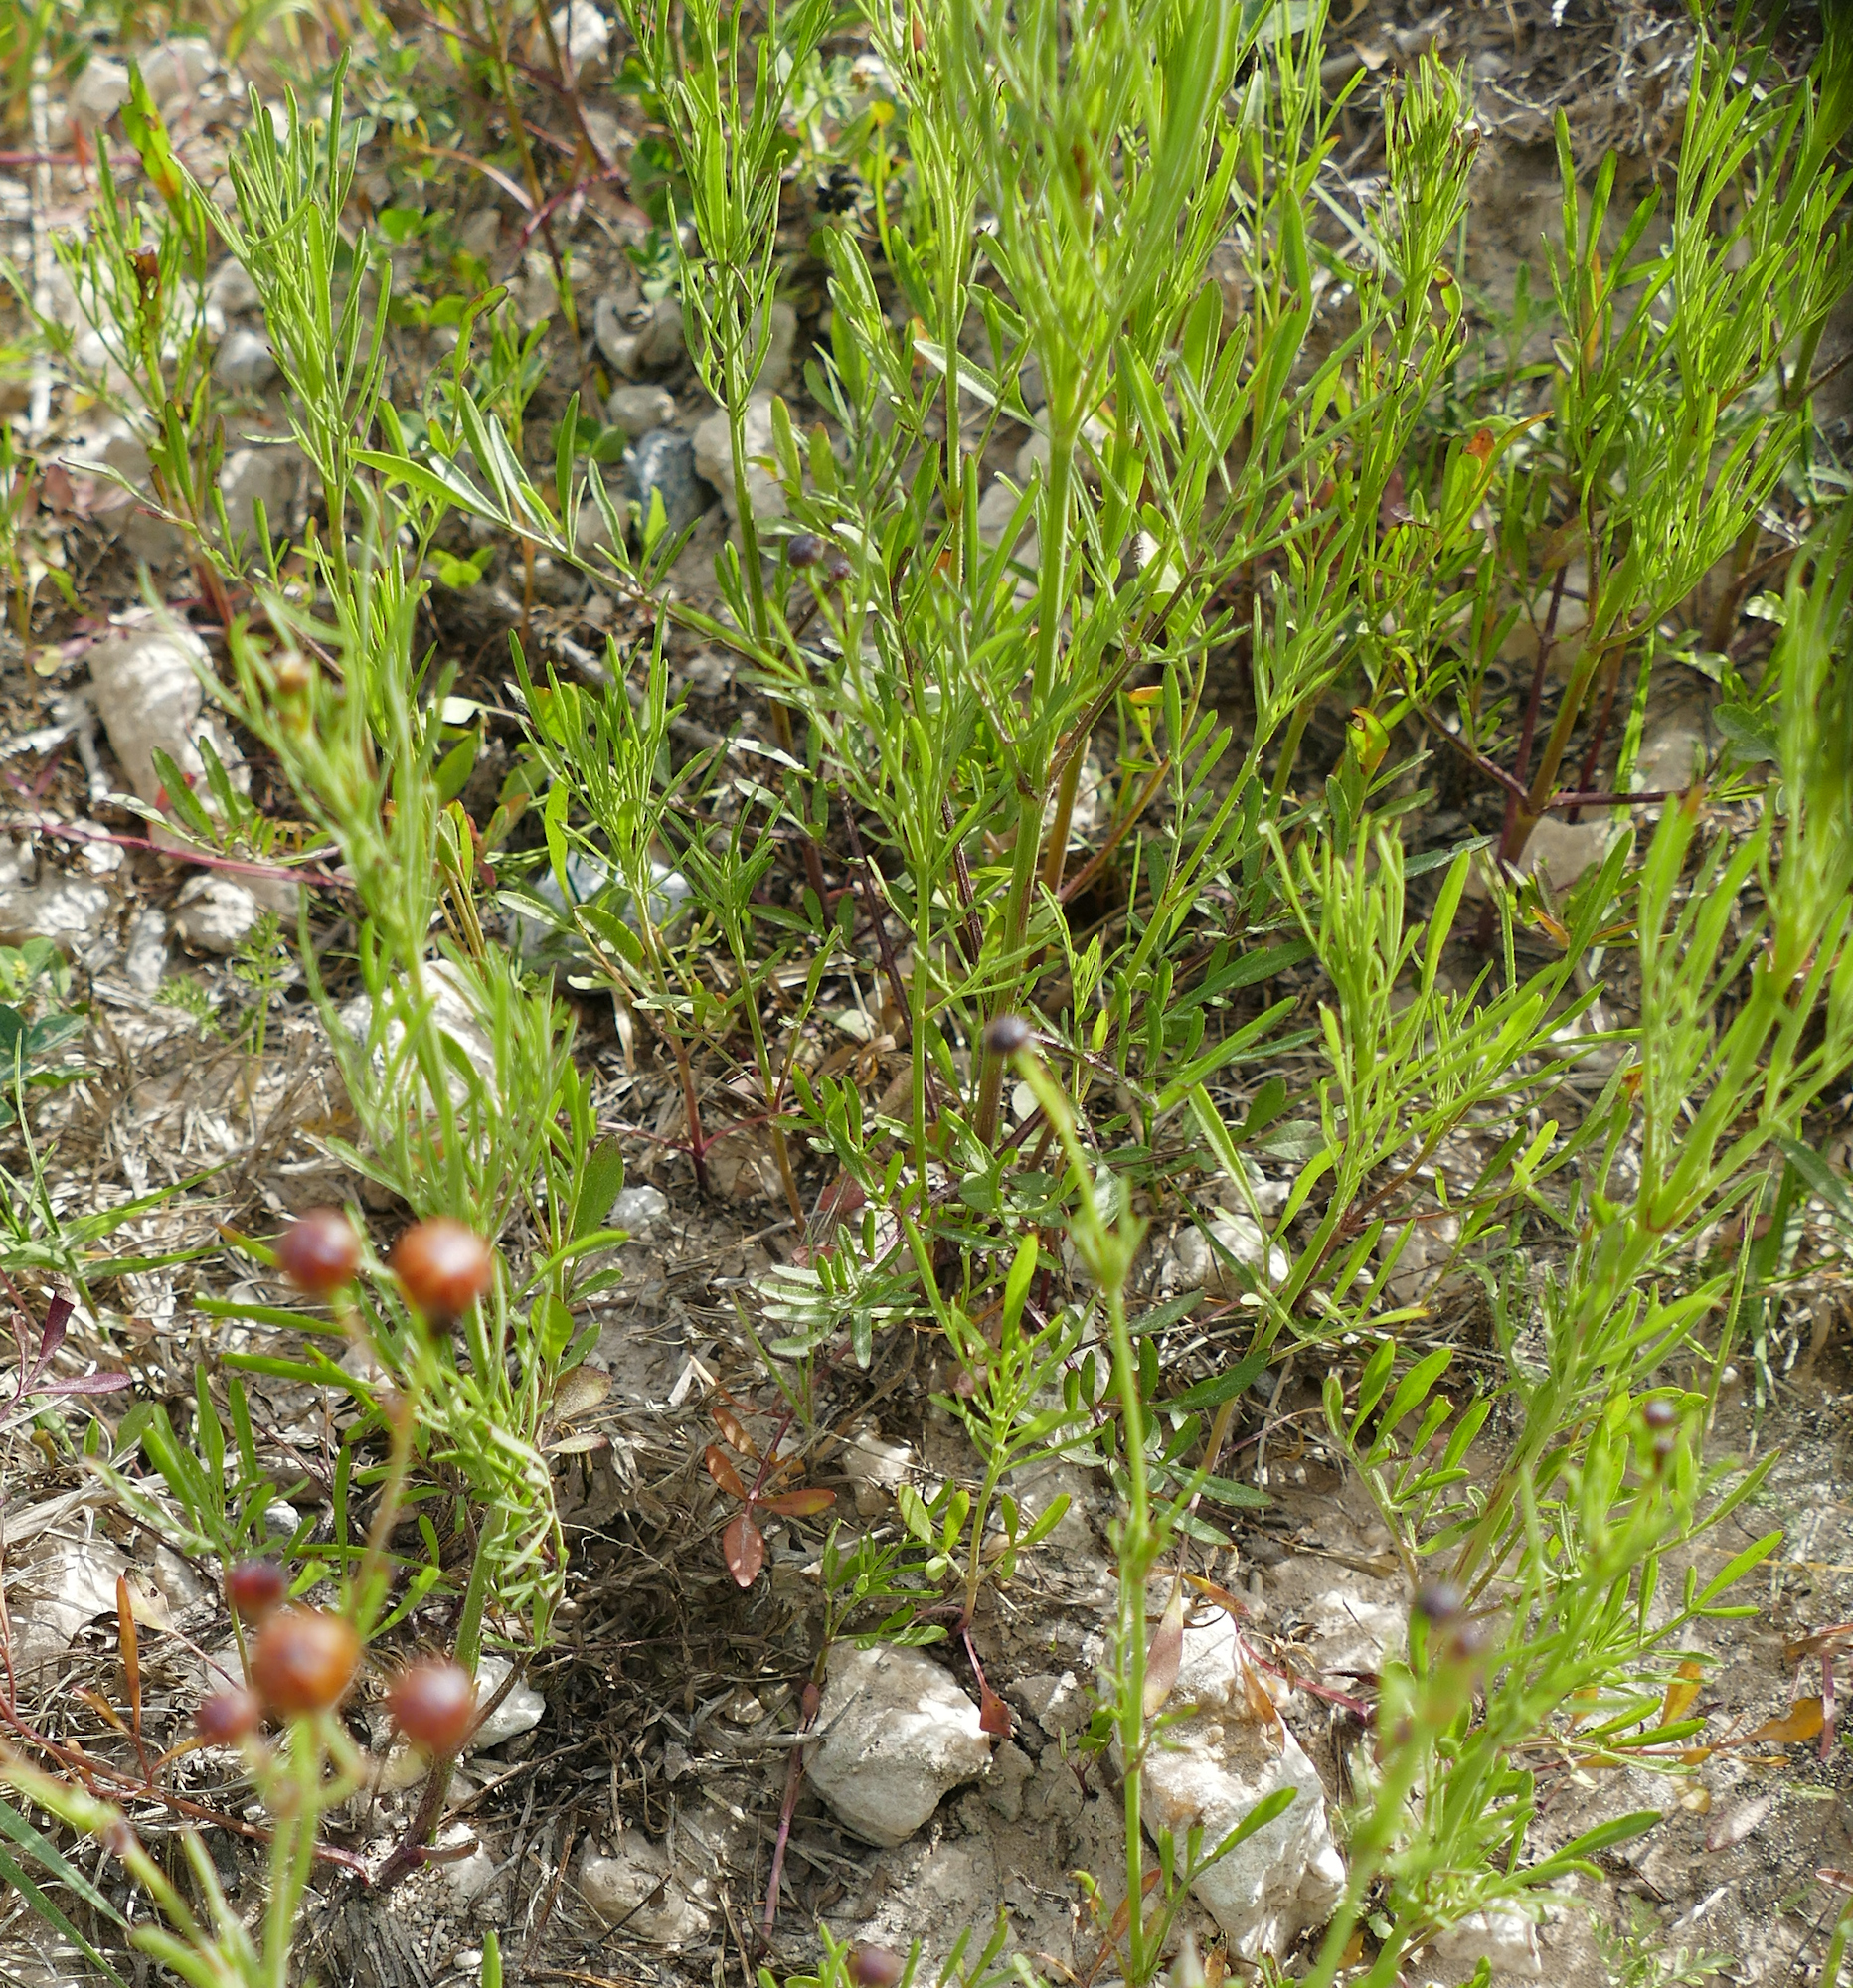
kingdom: Plantae
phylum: Tracheophyta
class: Magnoliopsida
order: Asterales
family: Asteraceae
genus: Coreopsis
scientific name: Coreopsis tinctoria
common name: Garden tickseed
